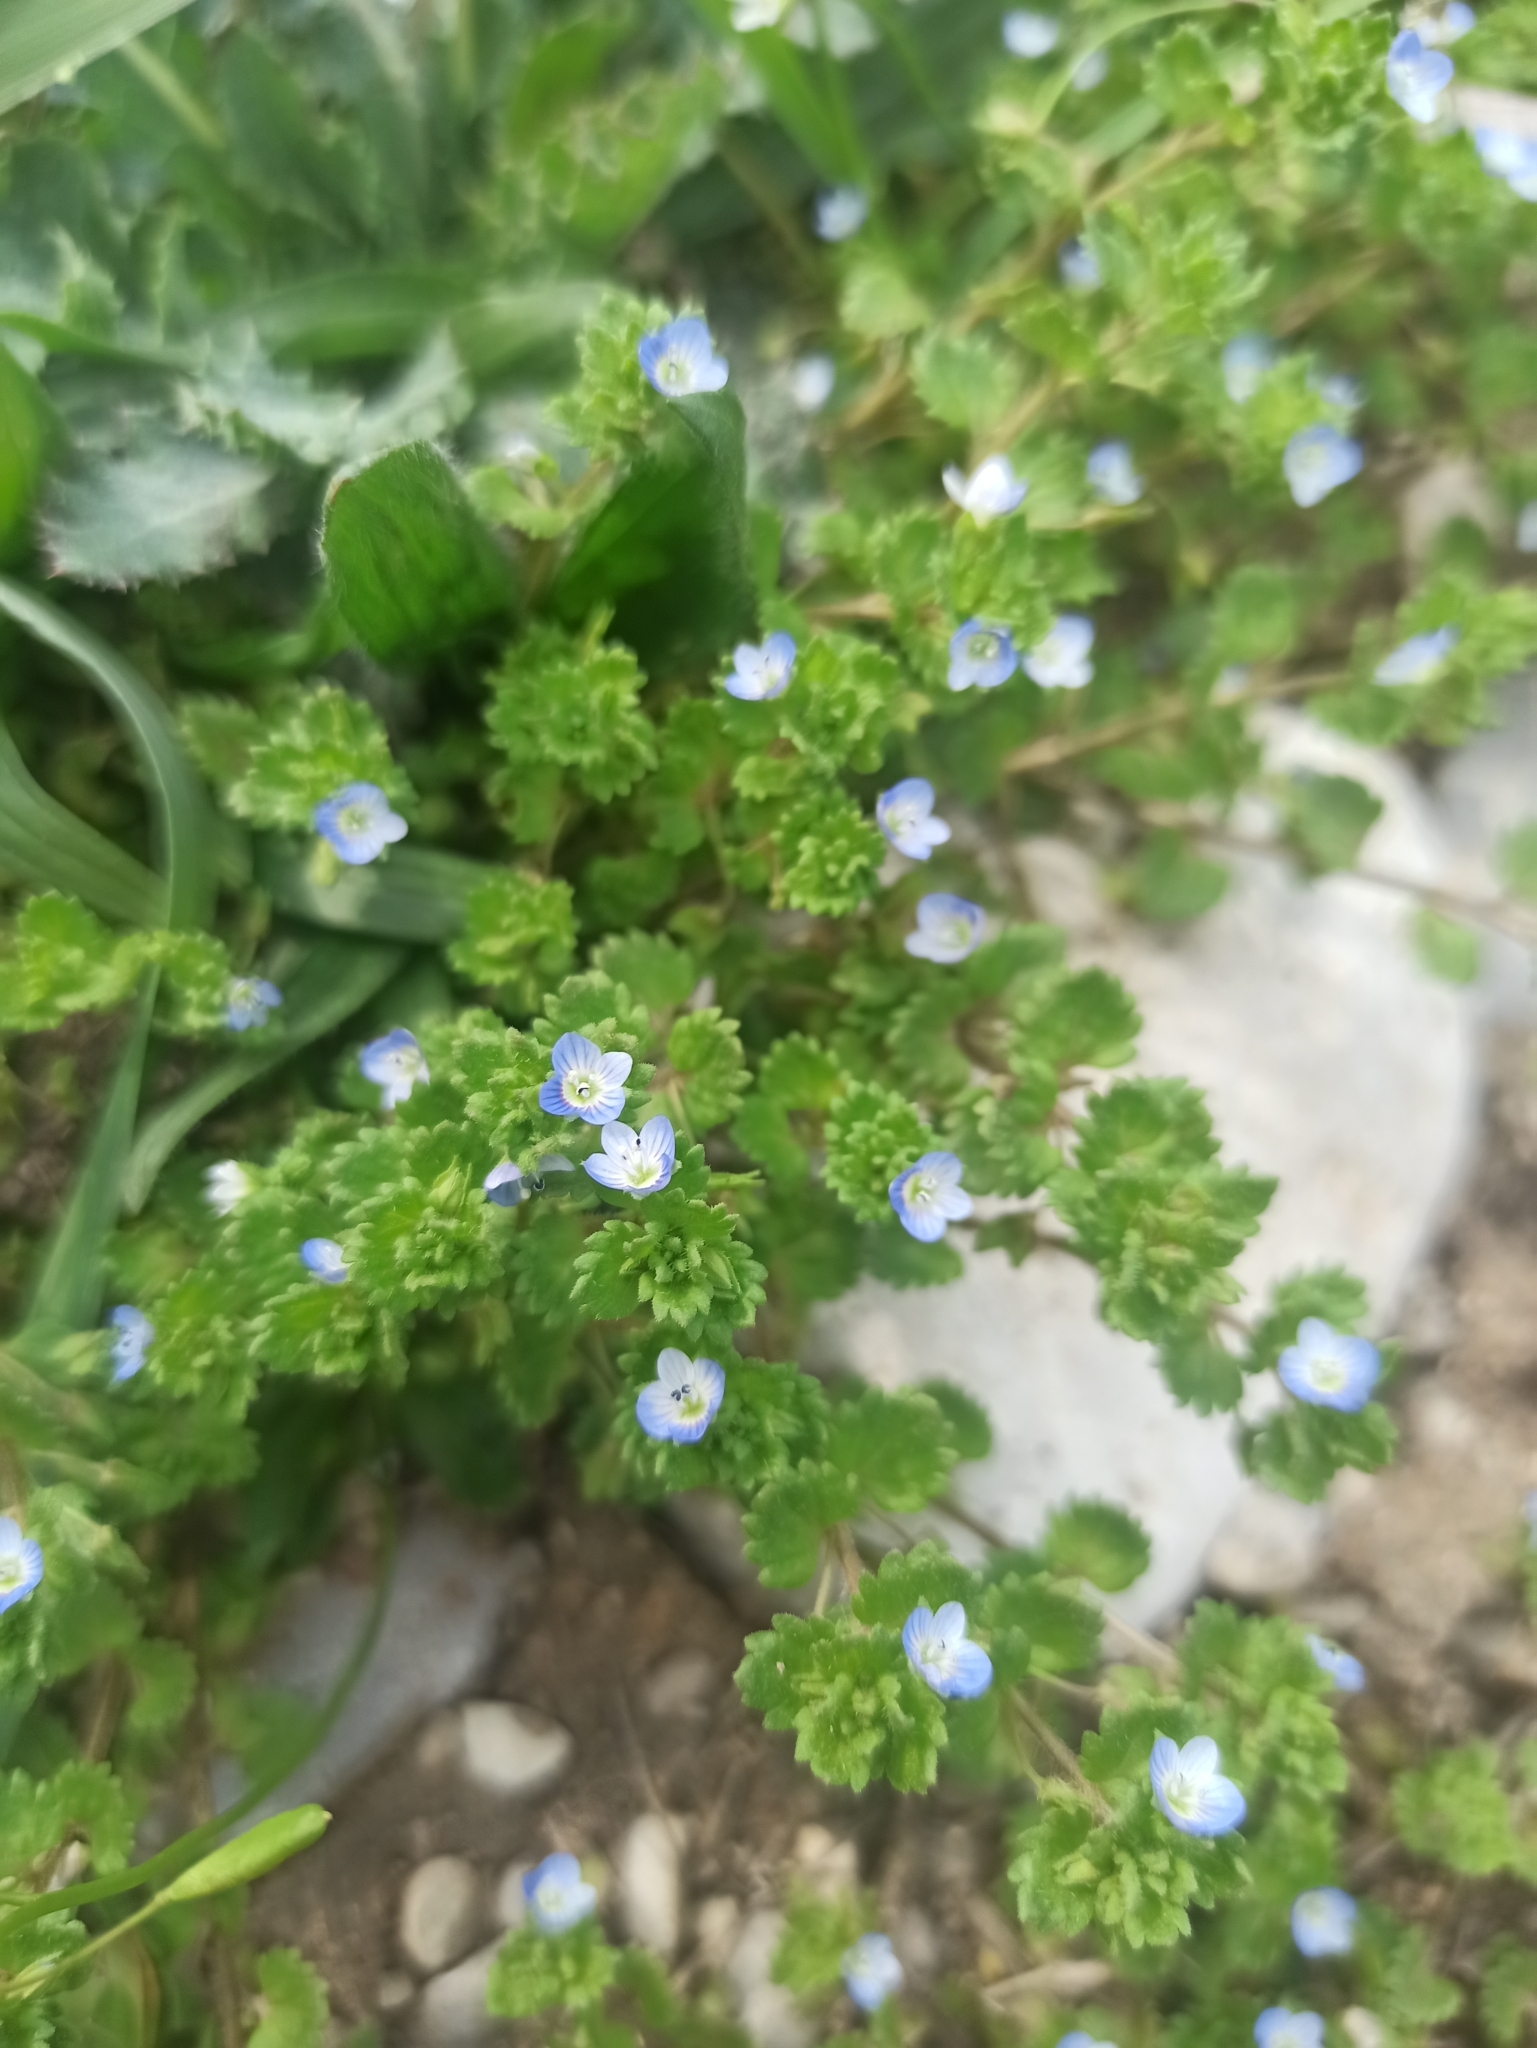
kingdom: Plantae
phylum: Tracheophyta
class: Magnoliopsida
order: Lamiales
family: Plantaginaceae
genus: Veronica
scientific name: Veronica polita
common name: Grey field-speedwell
